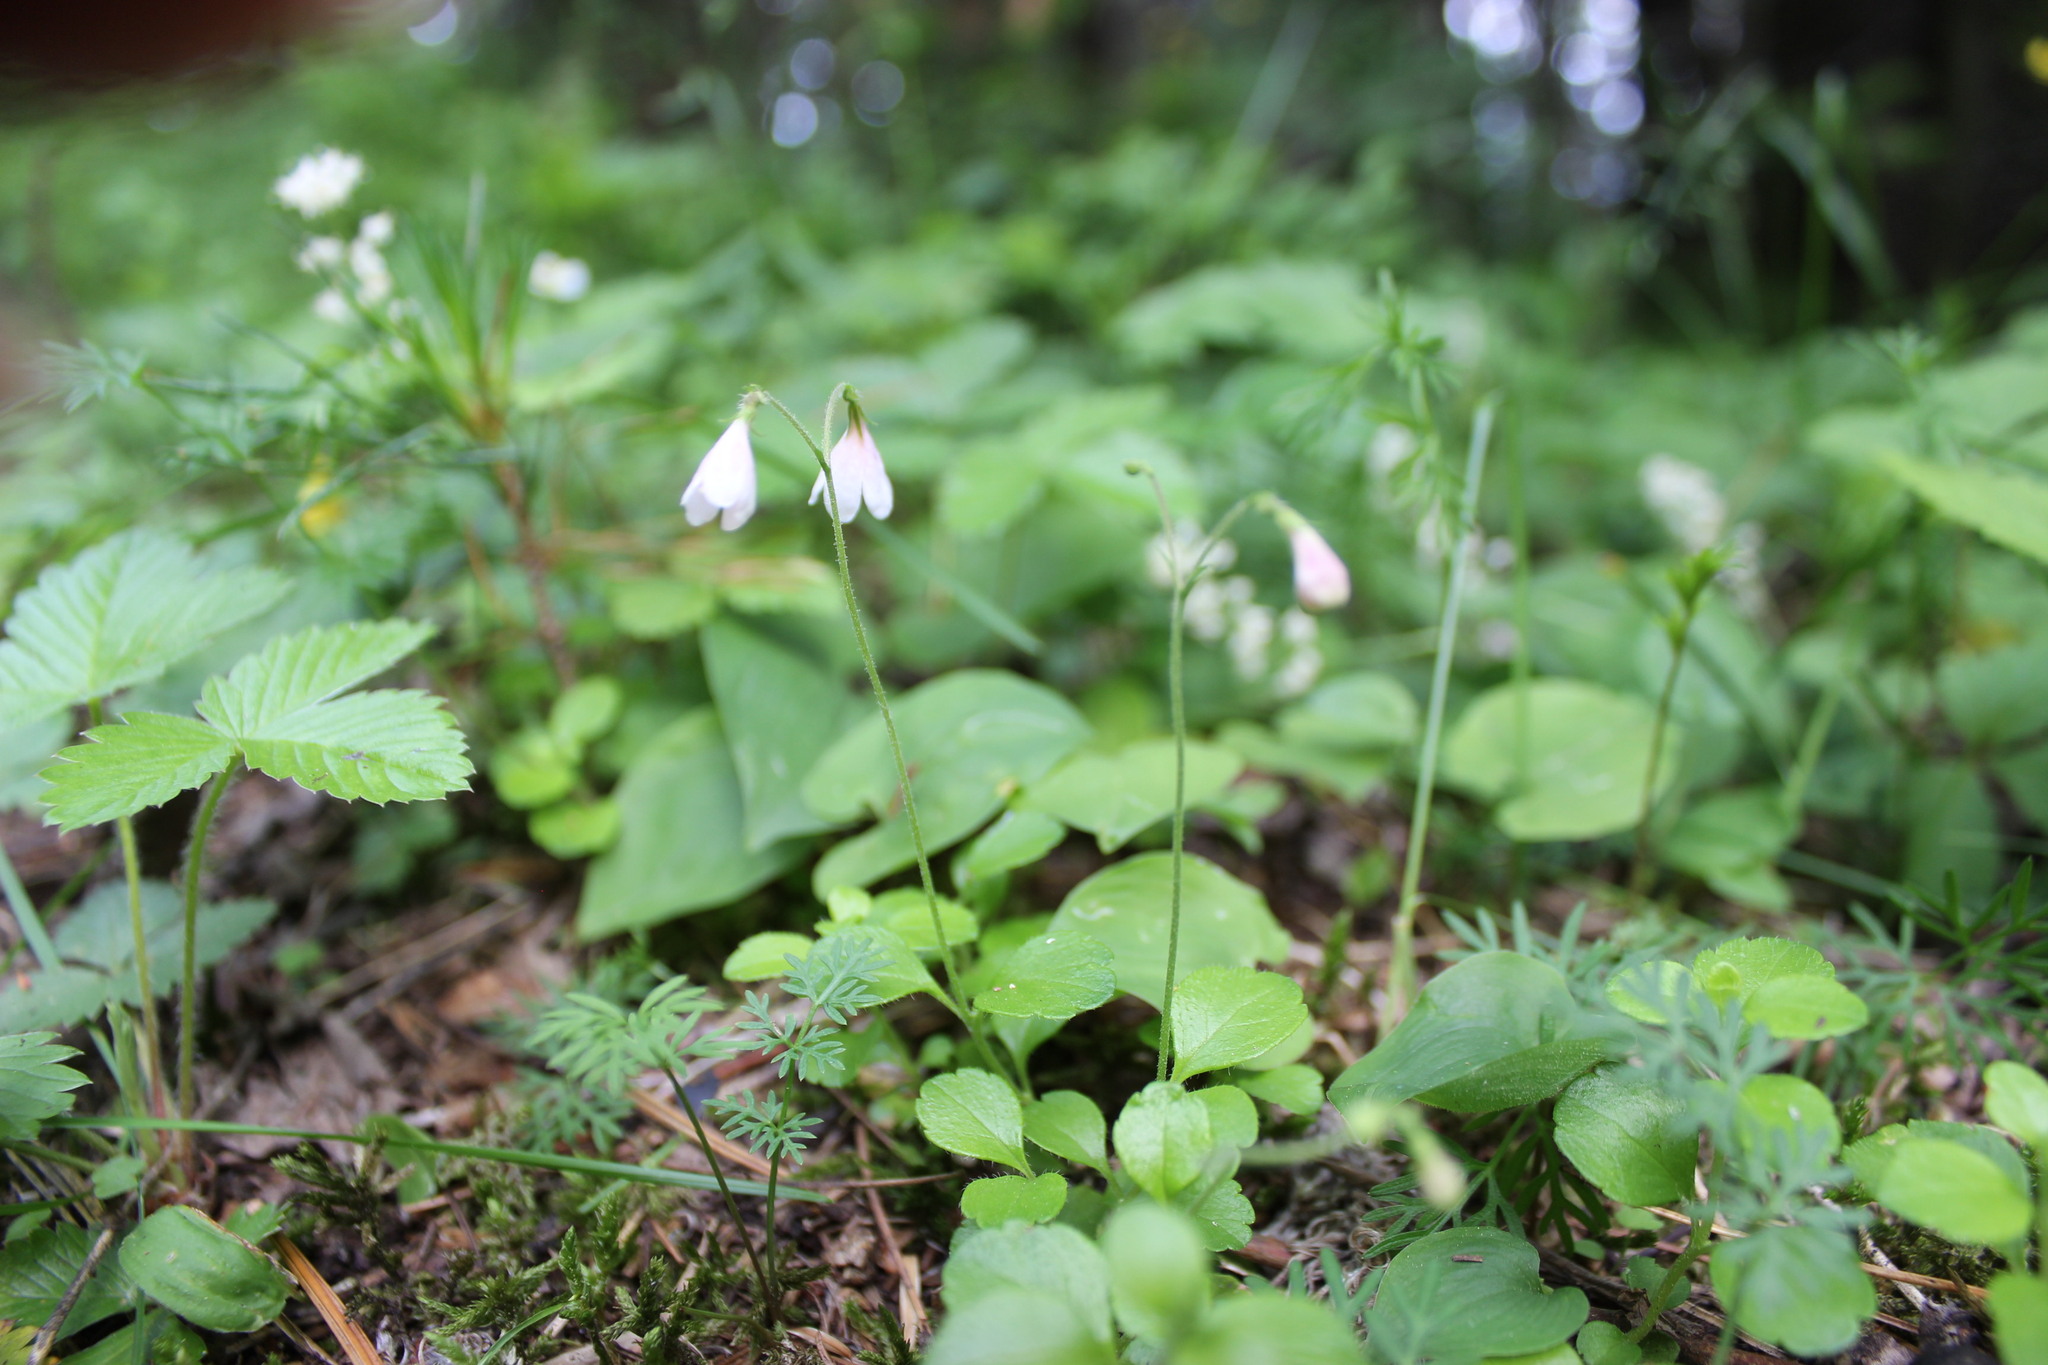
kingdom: Plantae
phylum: Tracheophyta
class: Liliopsida
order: Asparagales
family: Asparagaceae
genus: Maianthemum
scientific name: Maianthemum bifolium
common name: May lily
